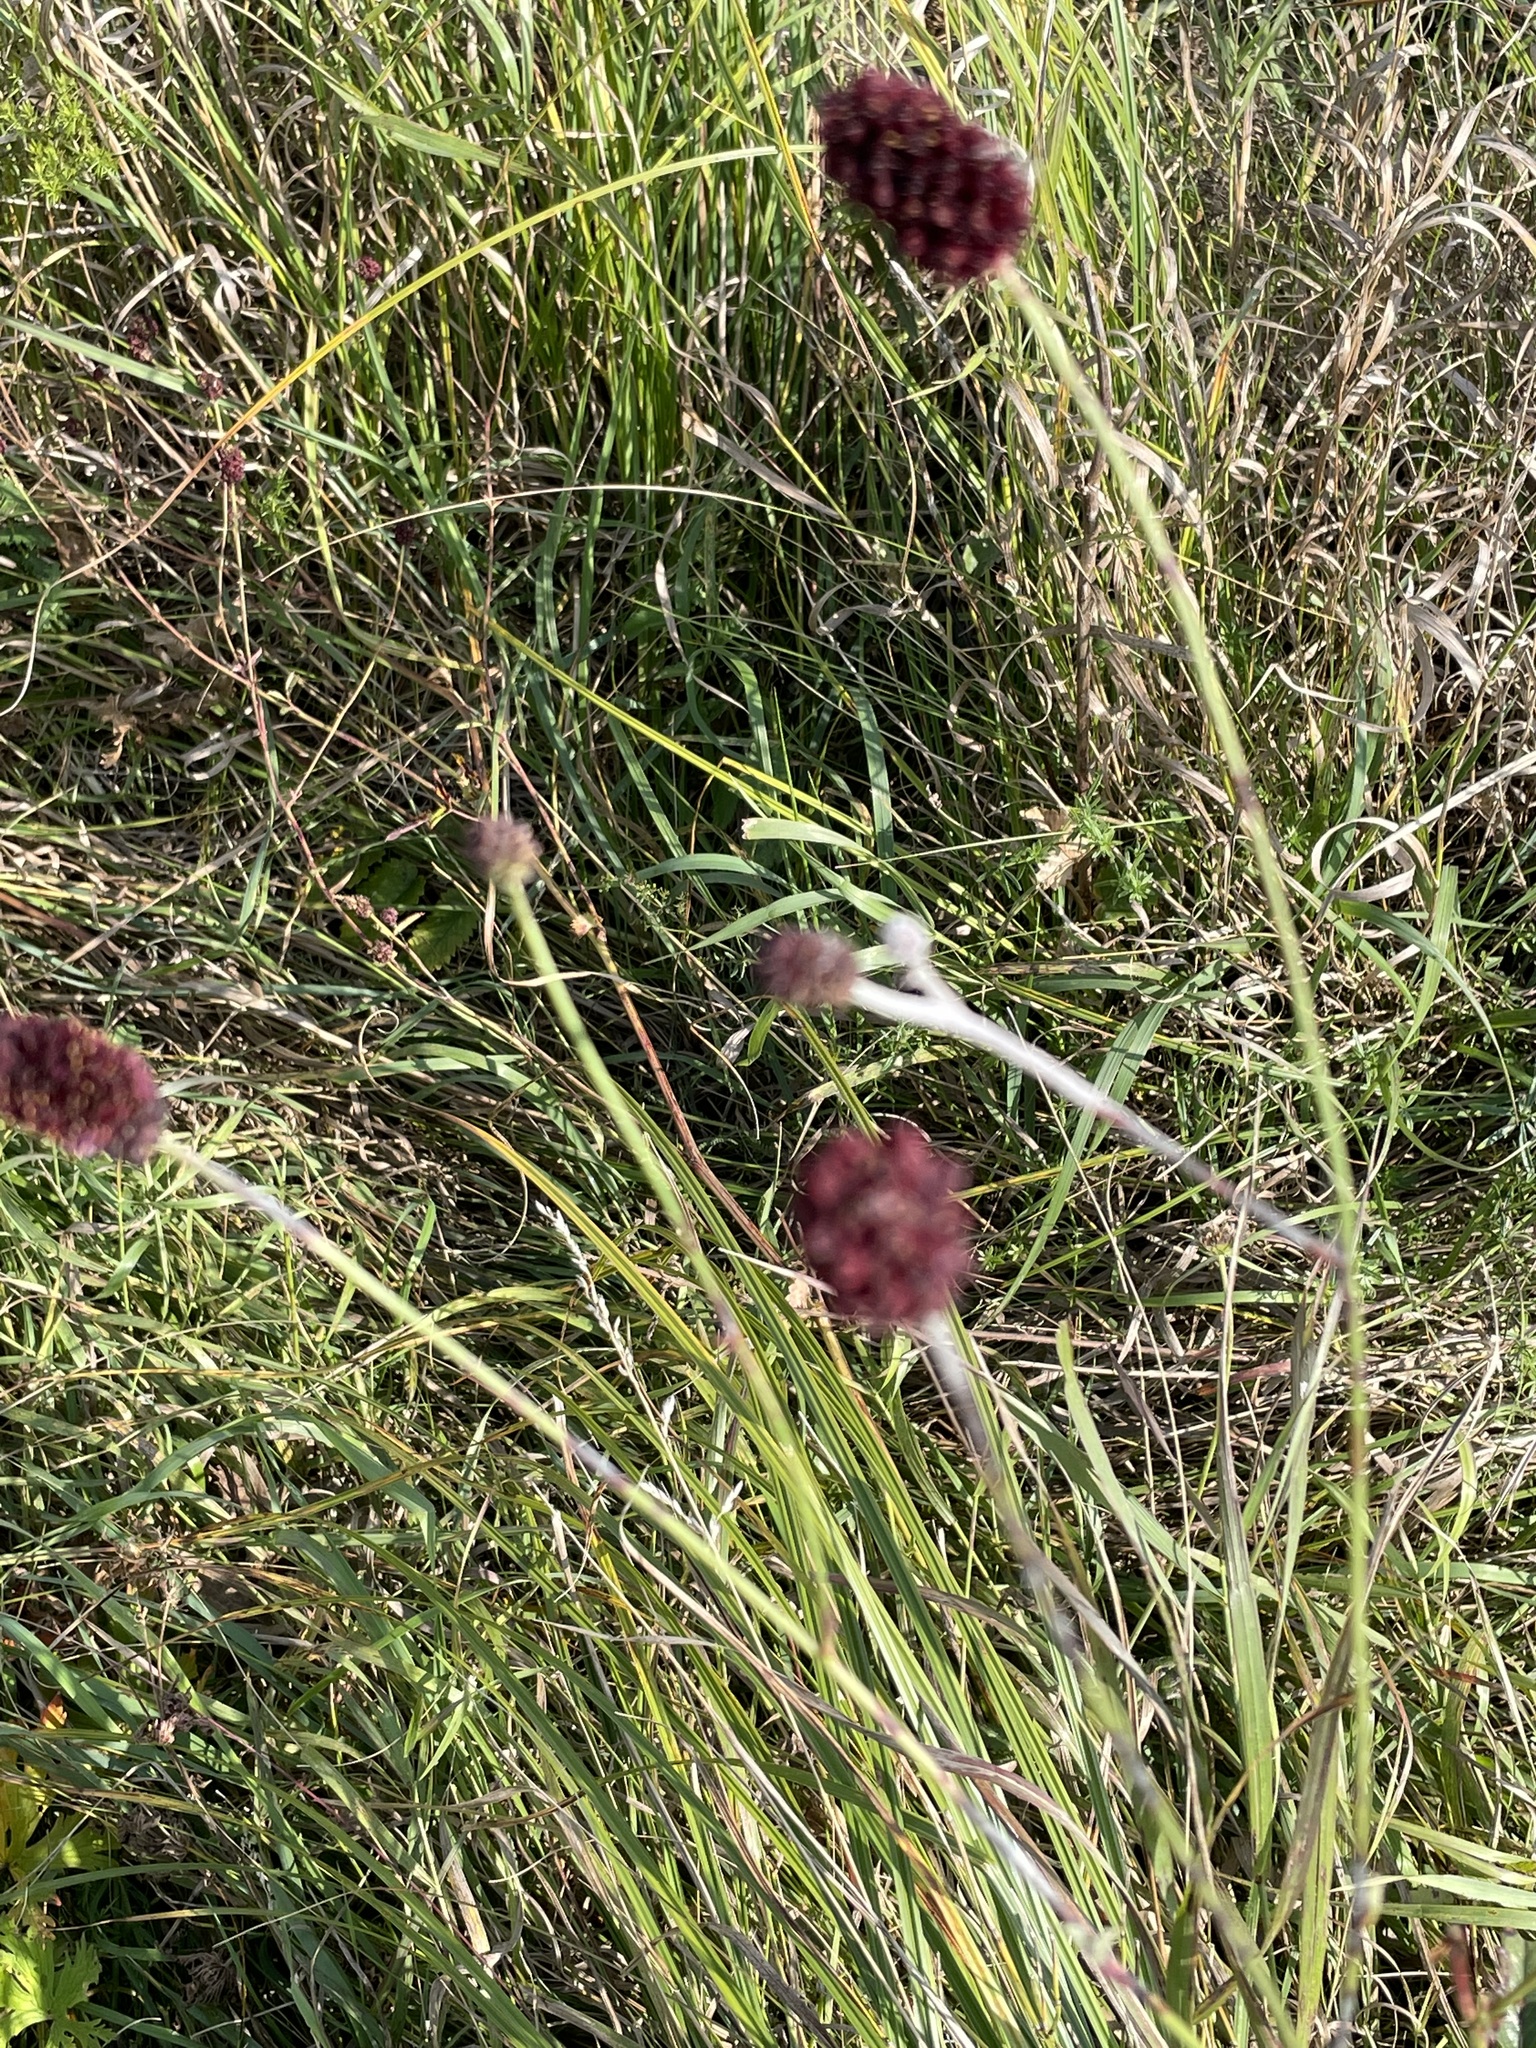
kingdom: Plantae
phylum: Tracheophyta
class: Magnoliopsida
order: Rosales
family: Rosaceae
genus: Sanguisorba
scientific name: Sanguisorba officinalis
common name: Great burnet
